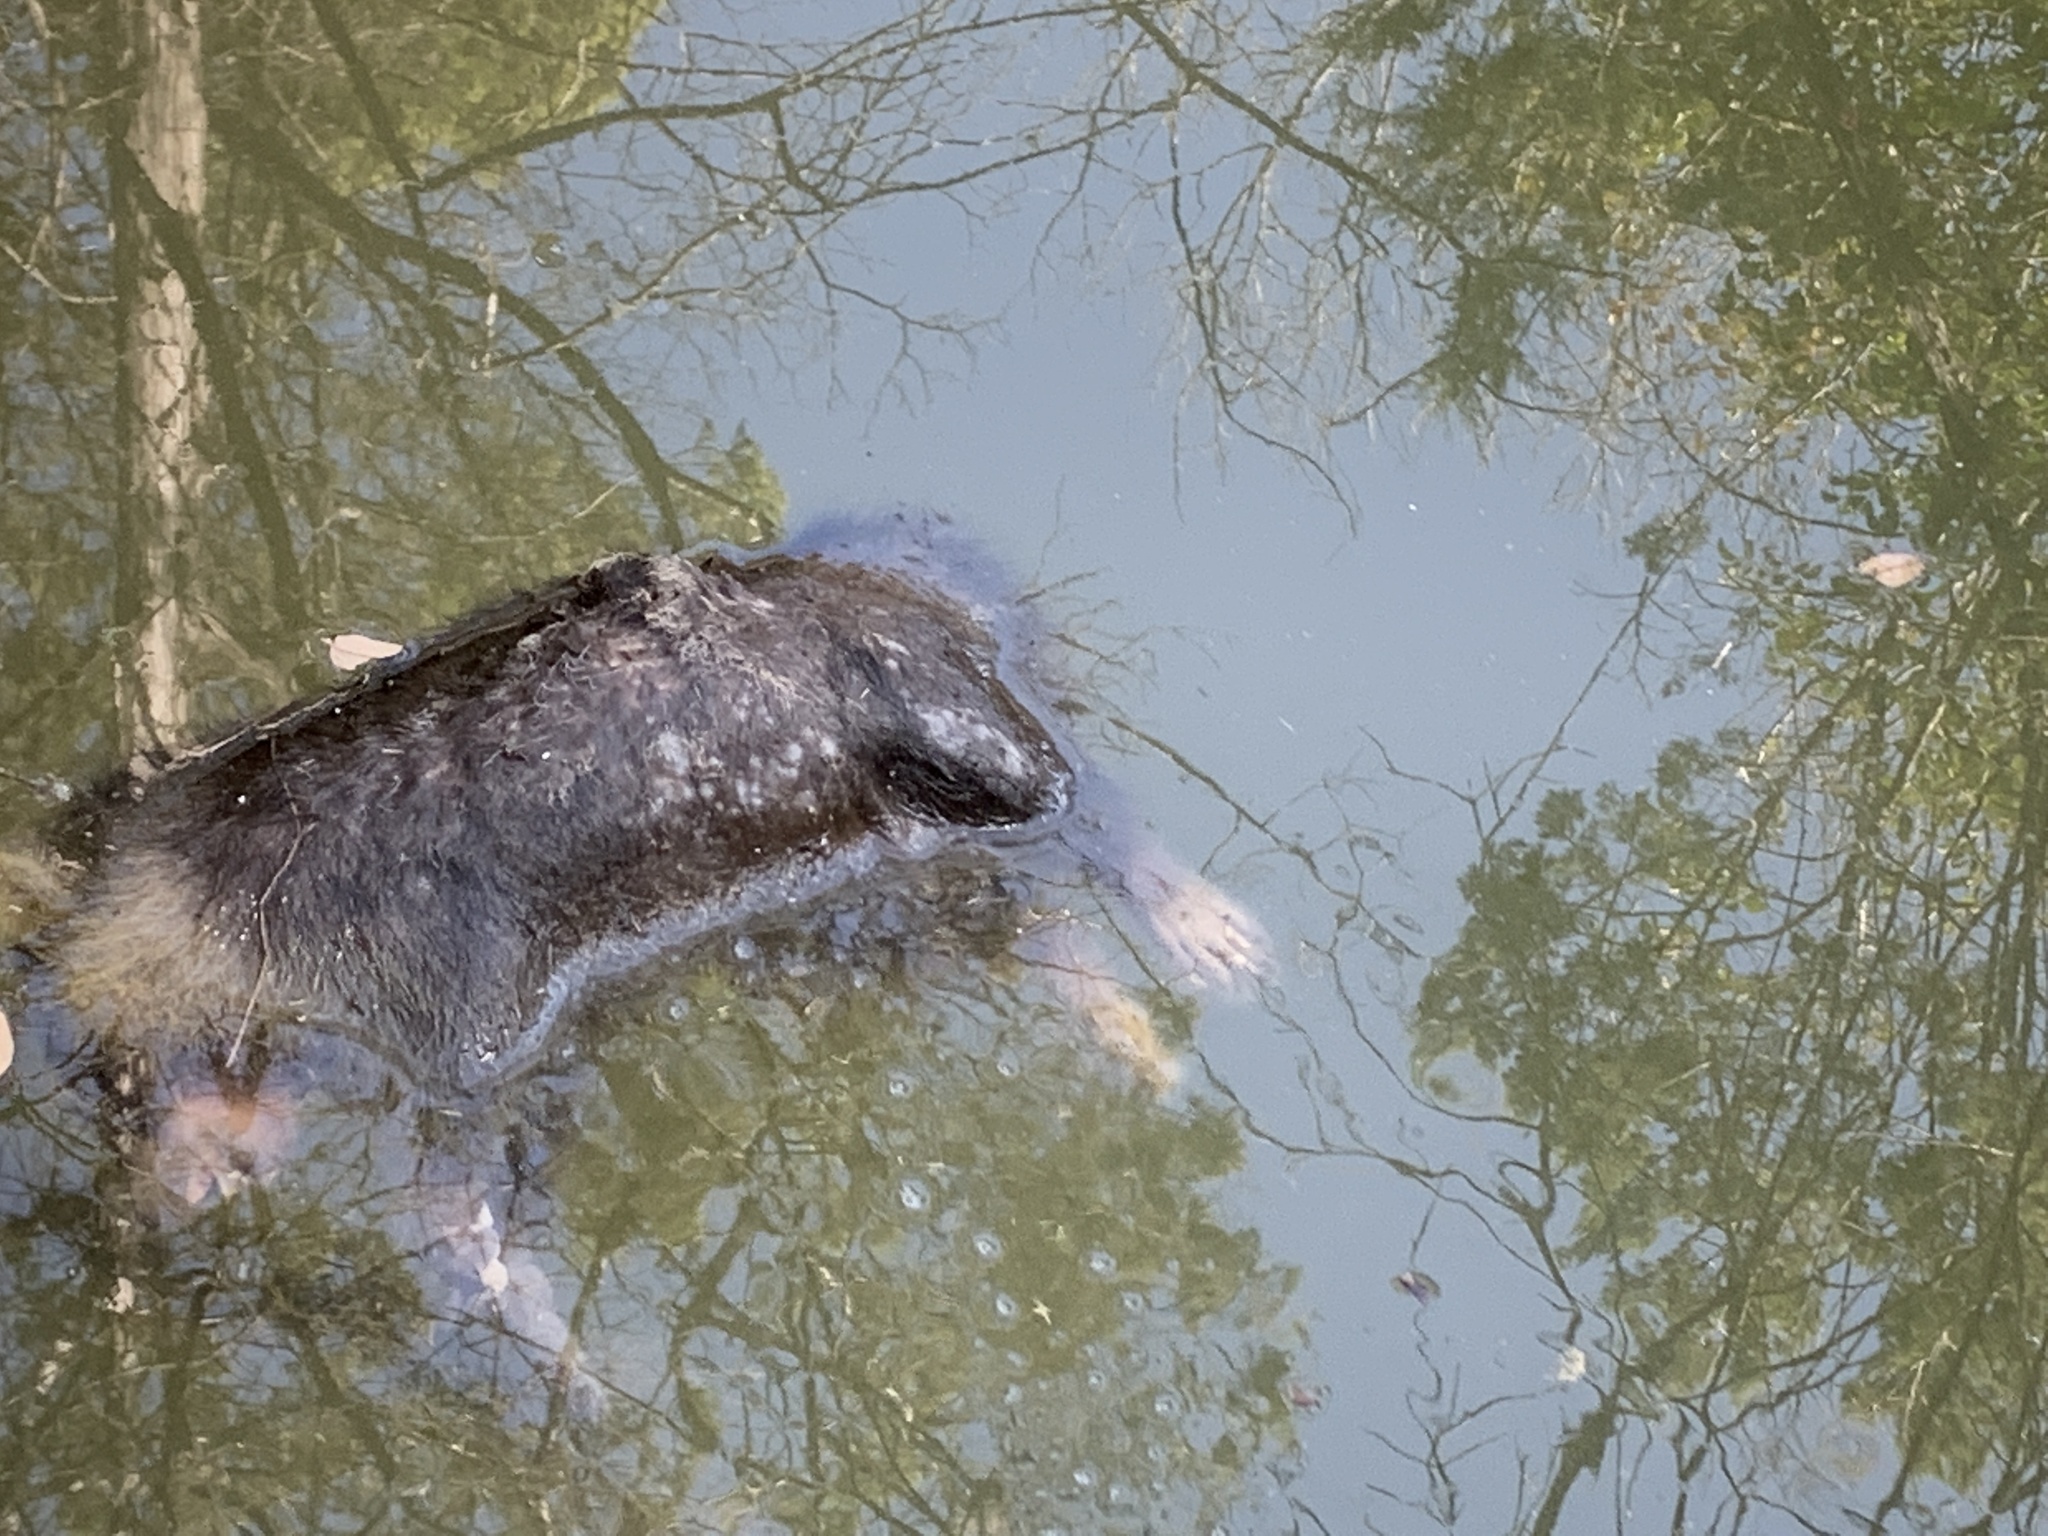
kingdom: Animalia
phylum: Chordata
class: Mammalia
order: Carnivora
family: Procyonidae
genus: Procyon
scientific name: Procyon lotor
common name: Raccoon
